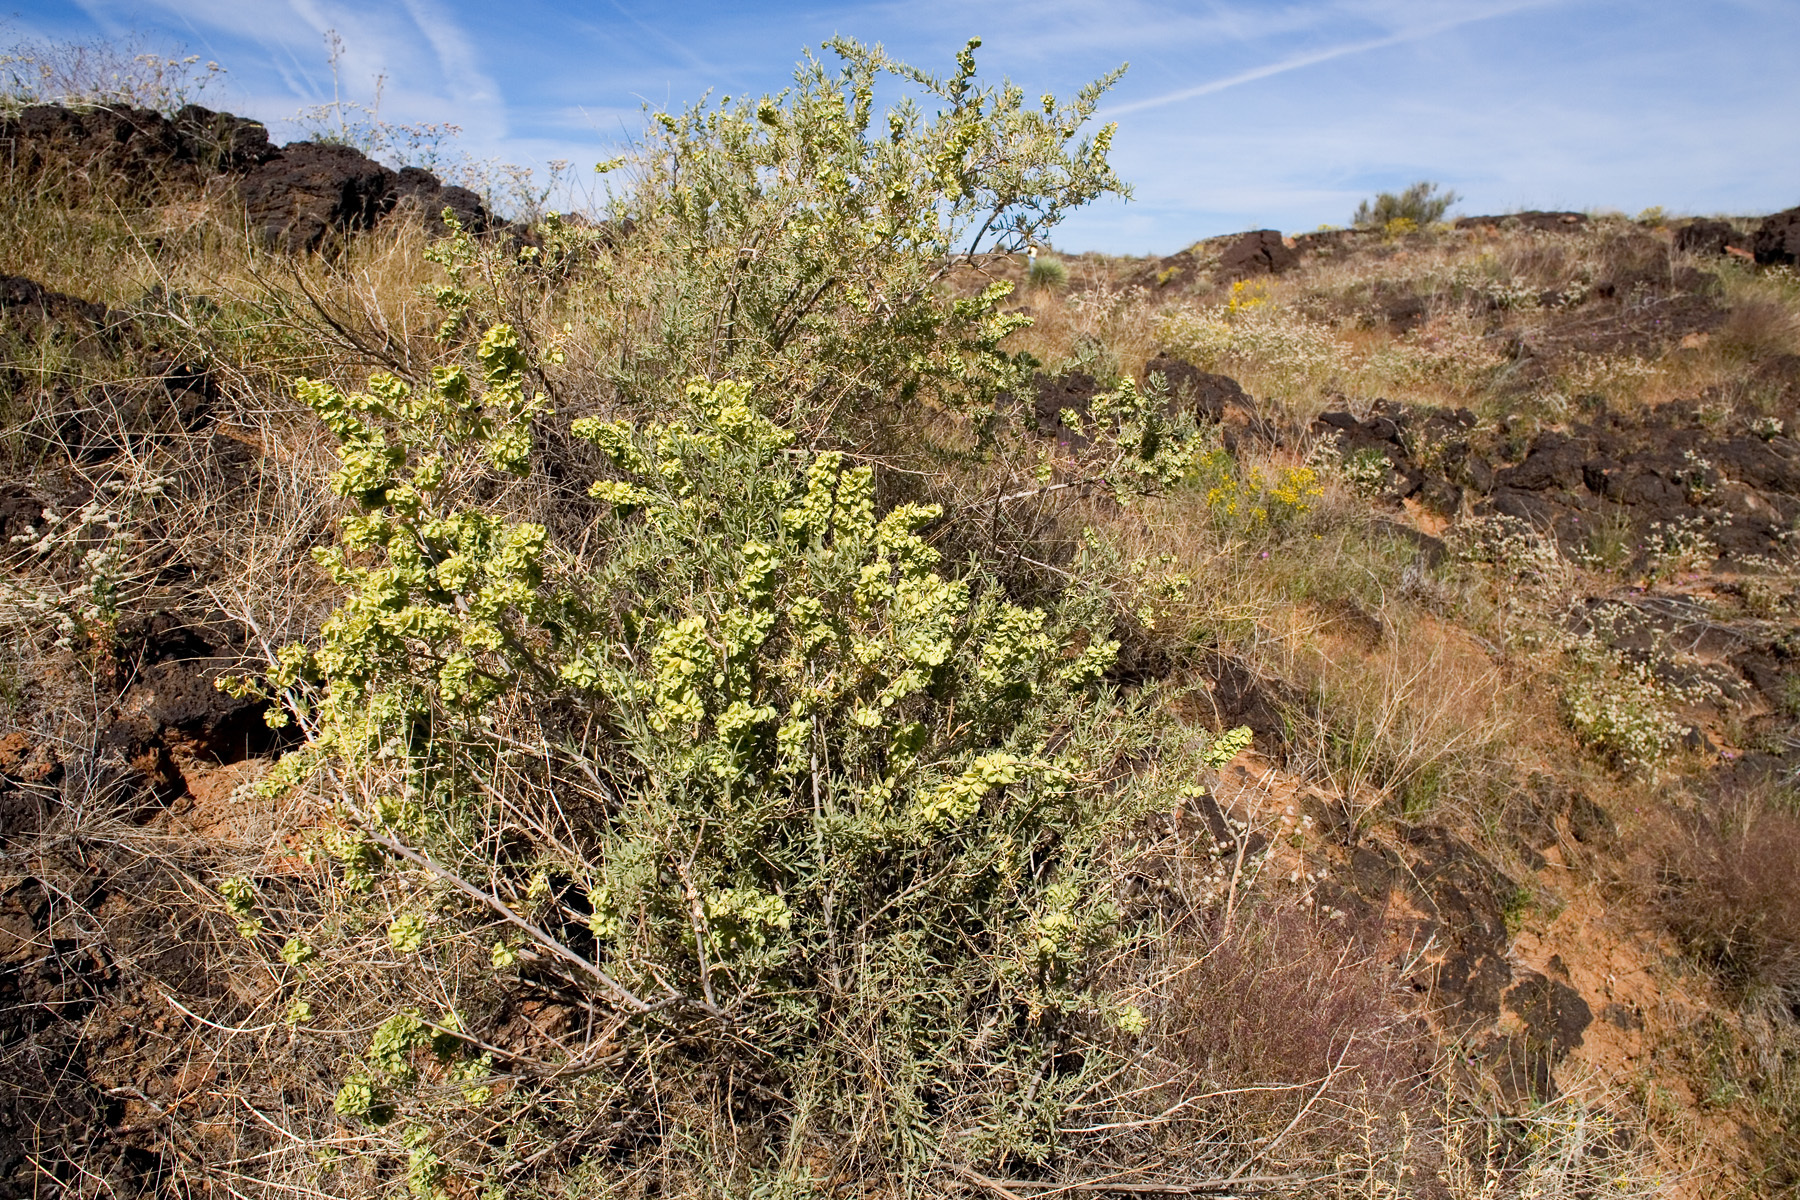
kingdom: Plantae
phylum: Tracheophyta
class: Magnoliopsida
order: Caryophyllales
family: Amaranthaceae
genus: Atriplex
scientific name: Atriplex canescens
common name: Four-wing saltbush
